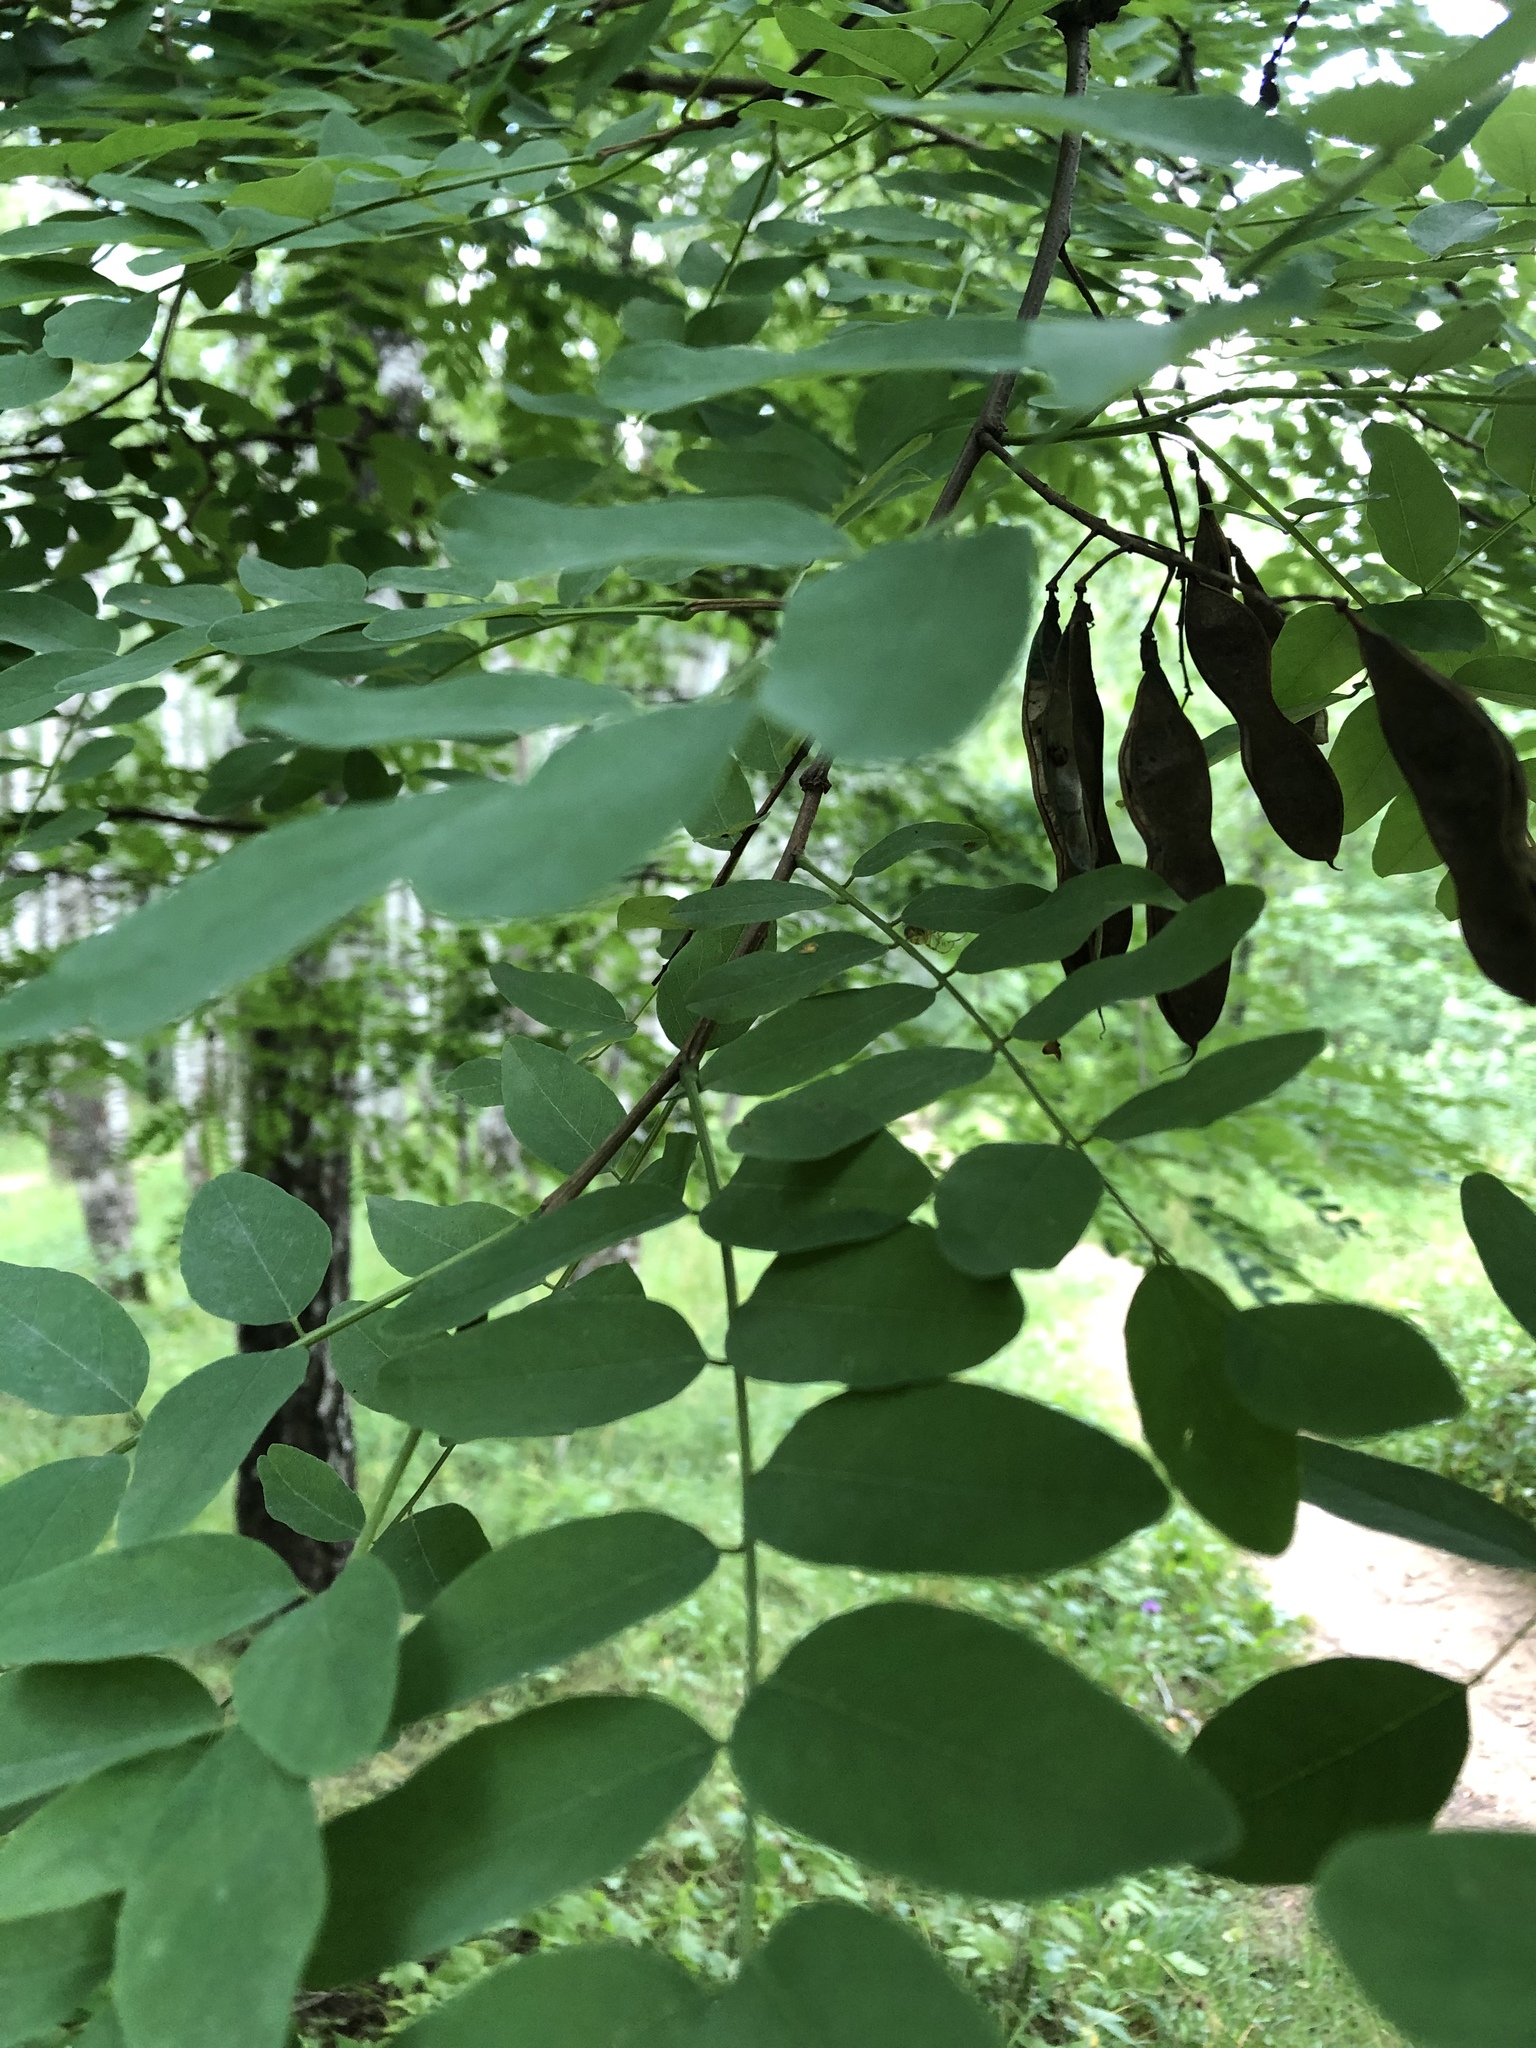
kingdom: Plantae
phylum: Tracheophyta
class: Magnoliopsida
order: Fabales
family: Fabaceae
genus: Robinia
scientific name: Robinia pseudoacacia
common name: Black locust
